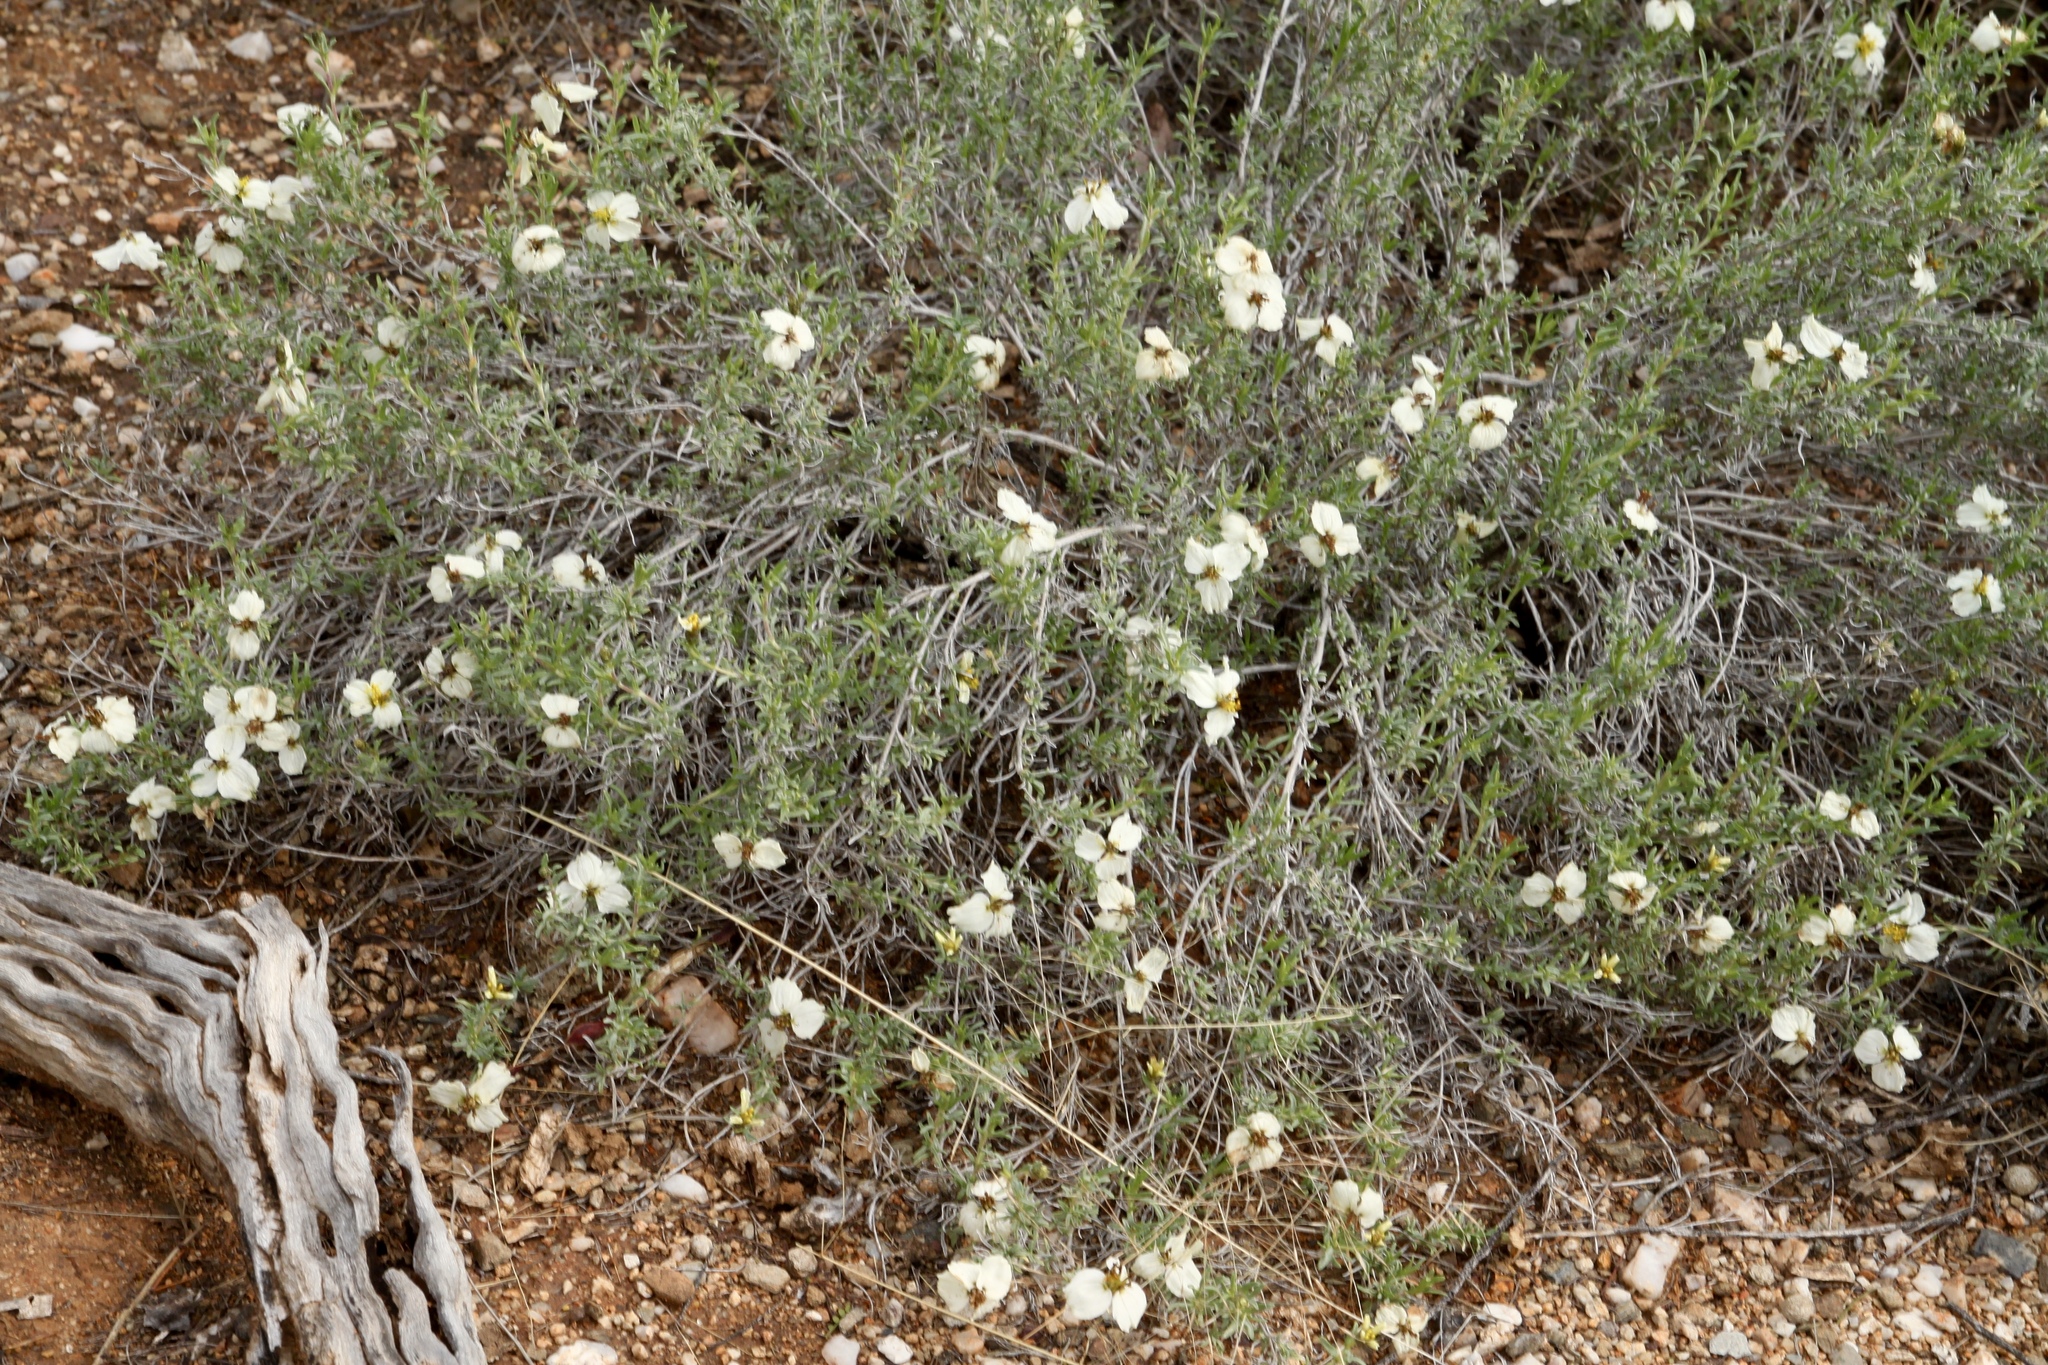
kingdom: Plantae
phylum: Tracheophyta
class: Magnoliopsida
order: Asterales
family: Asteraceae
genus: Zinnia
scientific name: Zinnia acerosa
